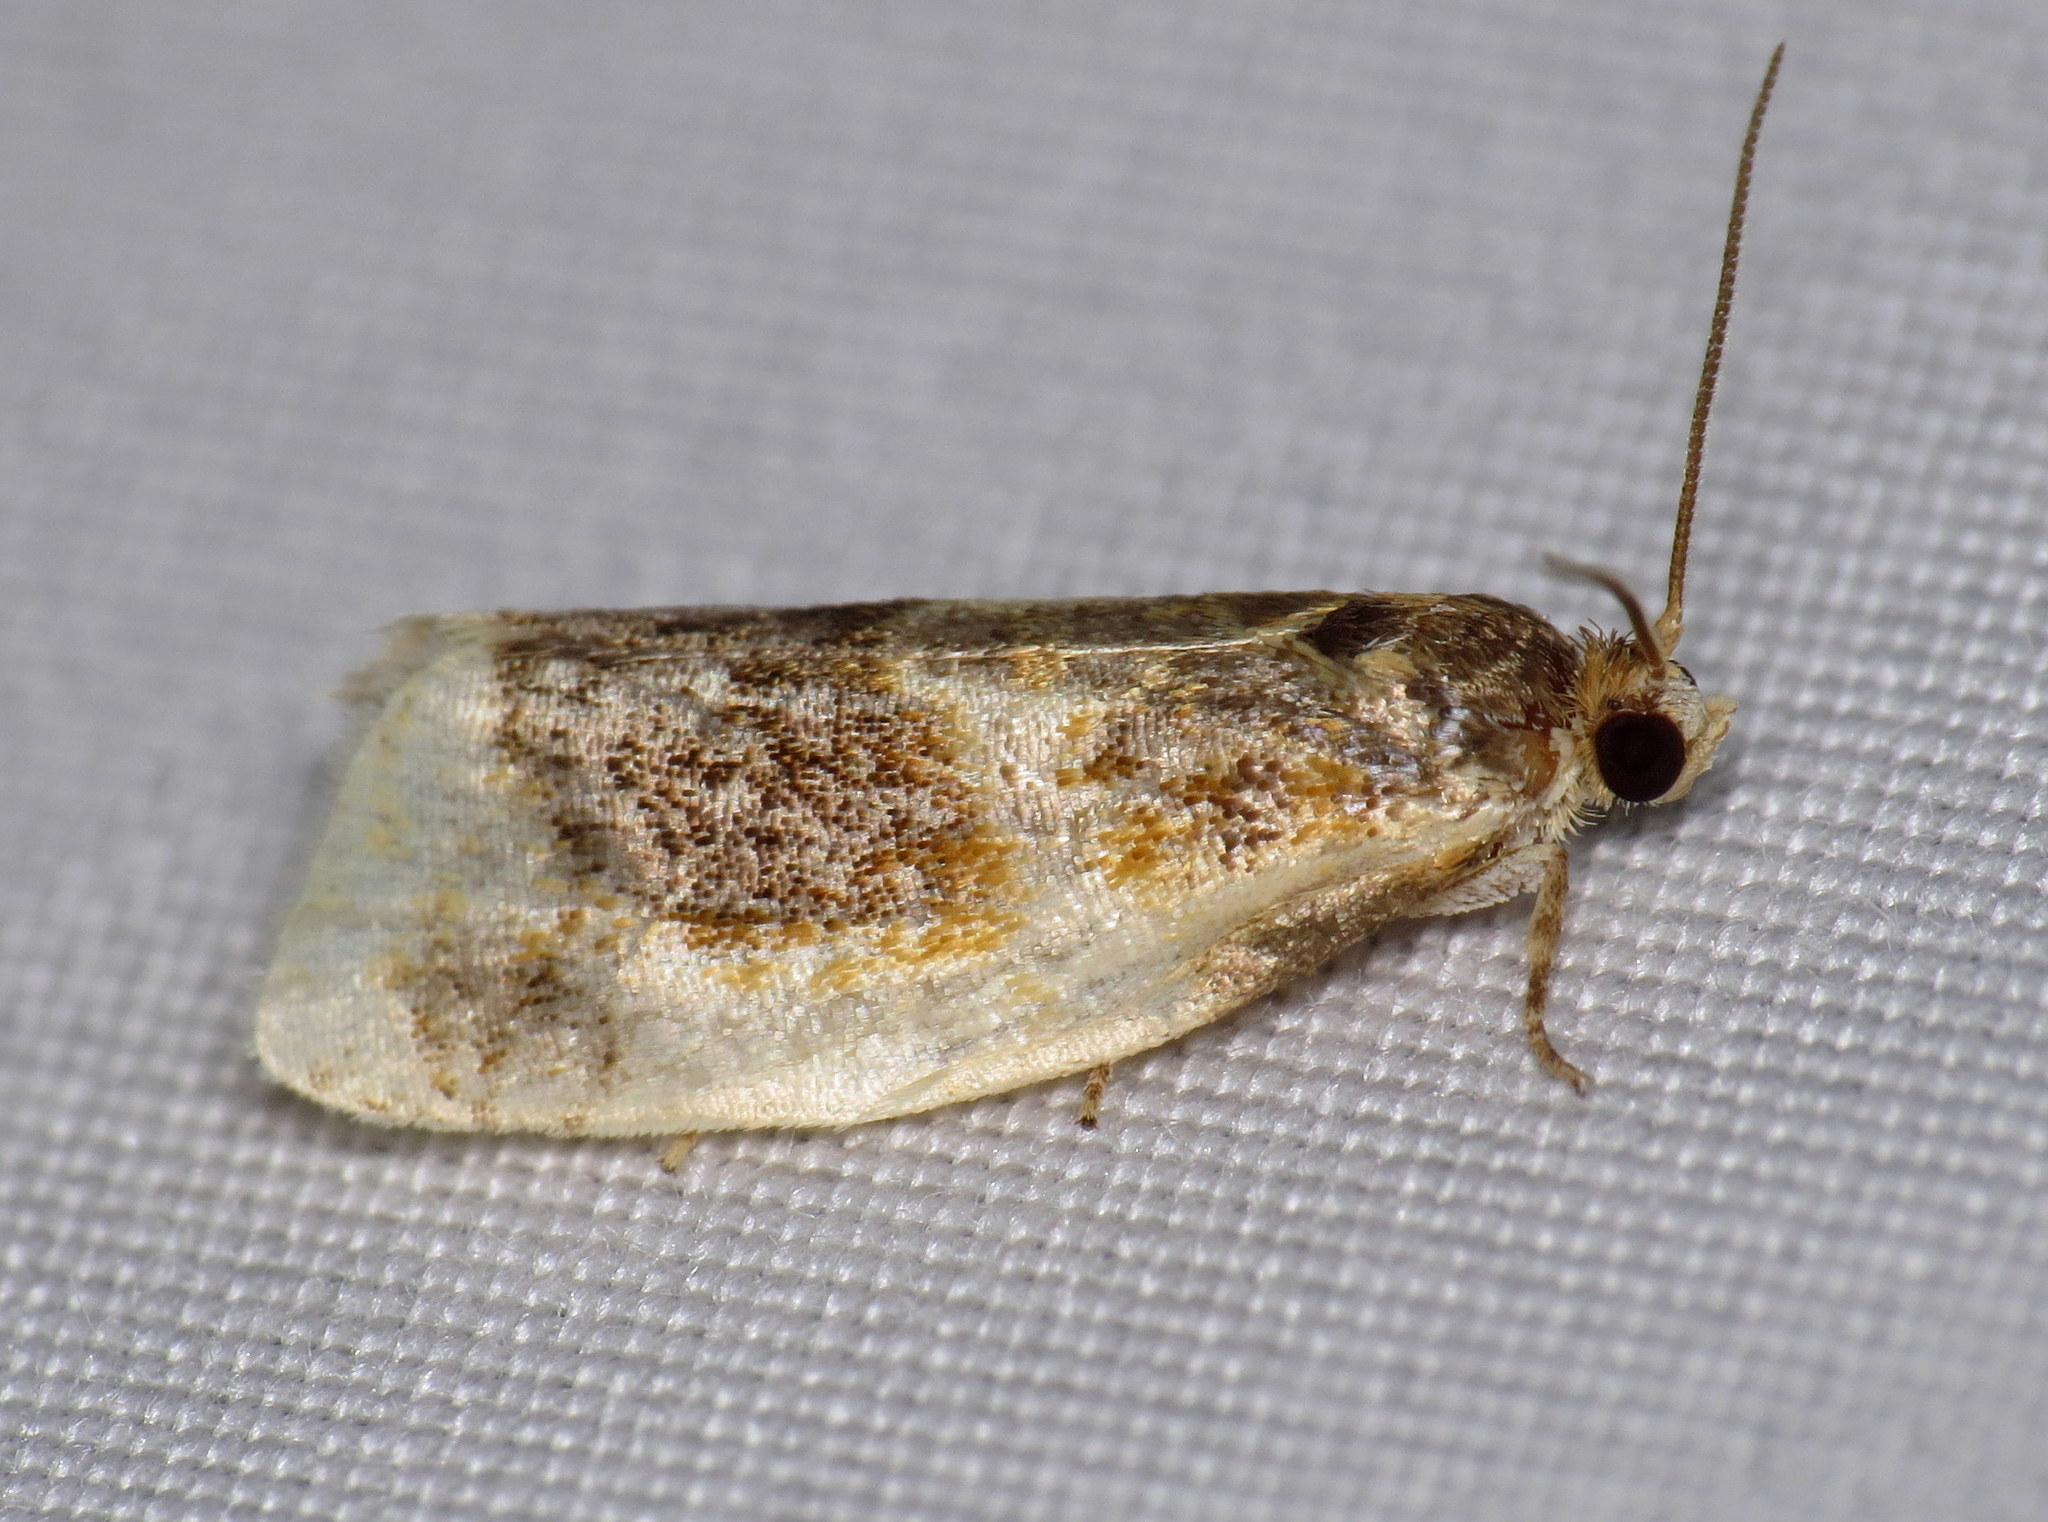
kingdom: Animalia
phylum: Arthropoda
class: Insecta
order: Lepidoptera
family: Tortricidae
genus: Clepsis
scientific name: Clepsis melaleucanus
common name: American apple tortrix
